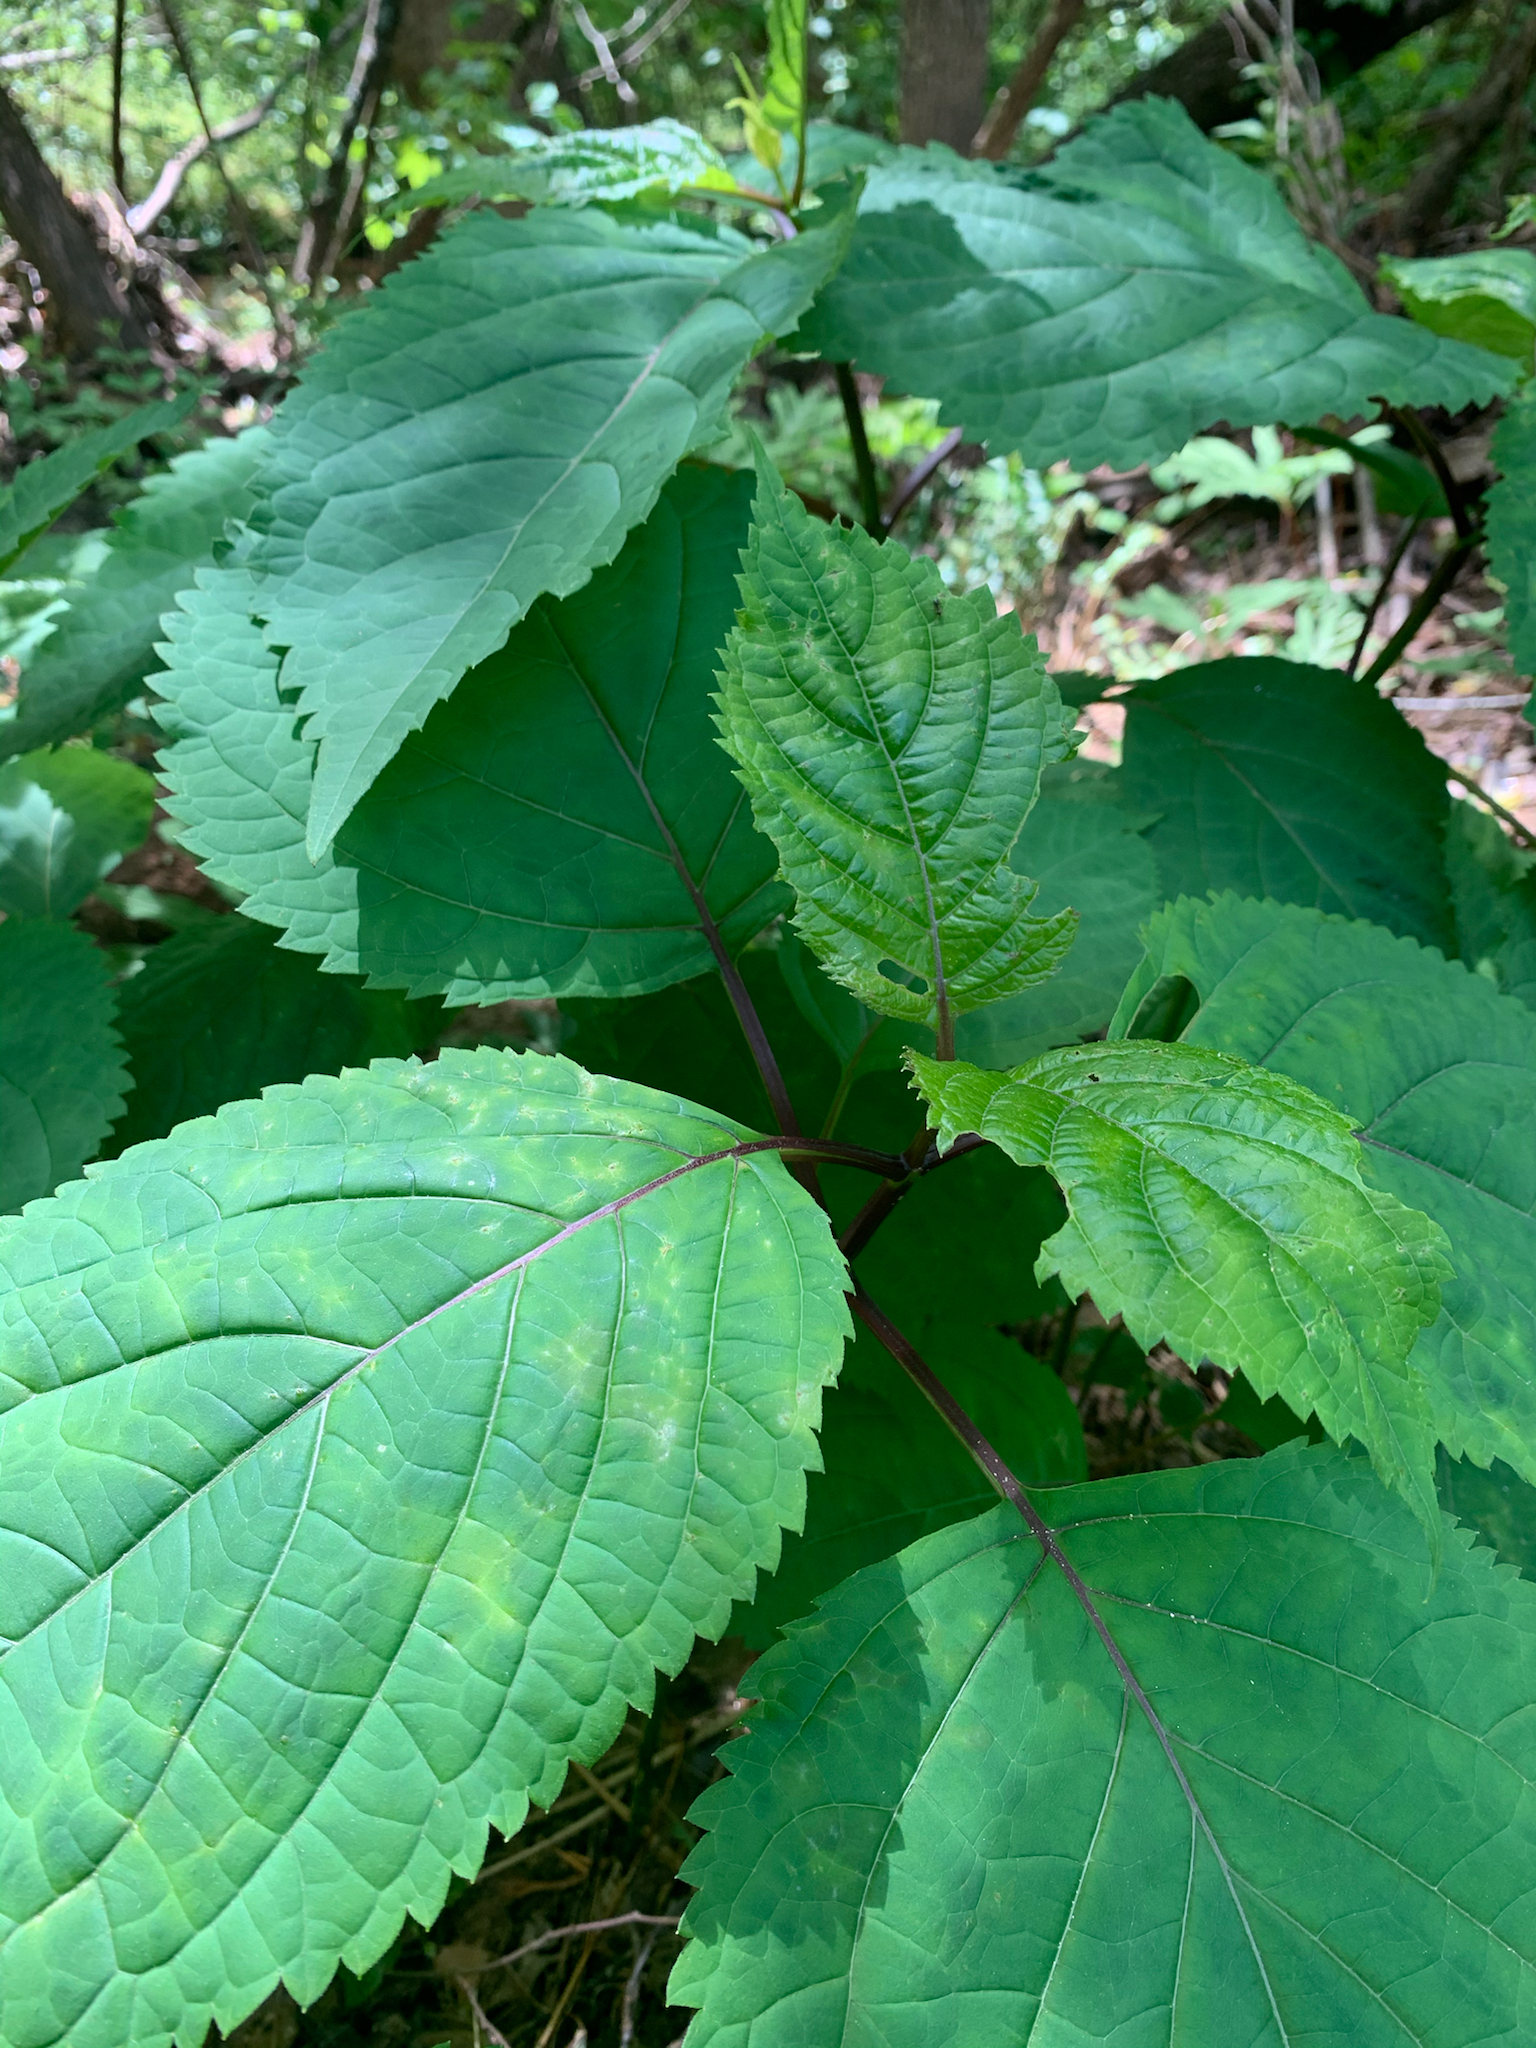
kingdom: Plantae
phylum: Tracheophyta
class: Magnoliopsida
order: Lamiales
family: Lamiaceae
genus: Collinsonia
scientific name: Collinsonia canadensis
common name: Northern horsebalm
